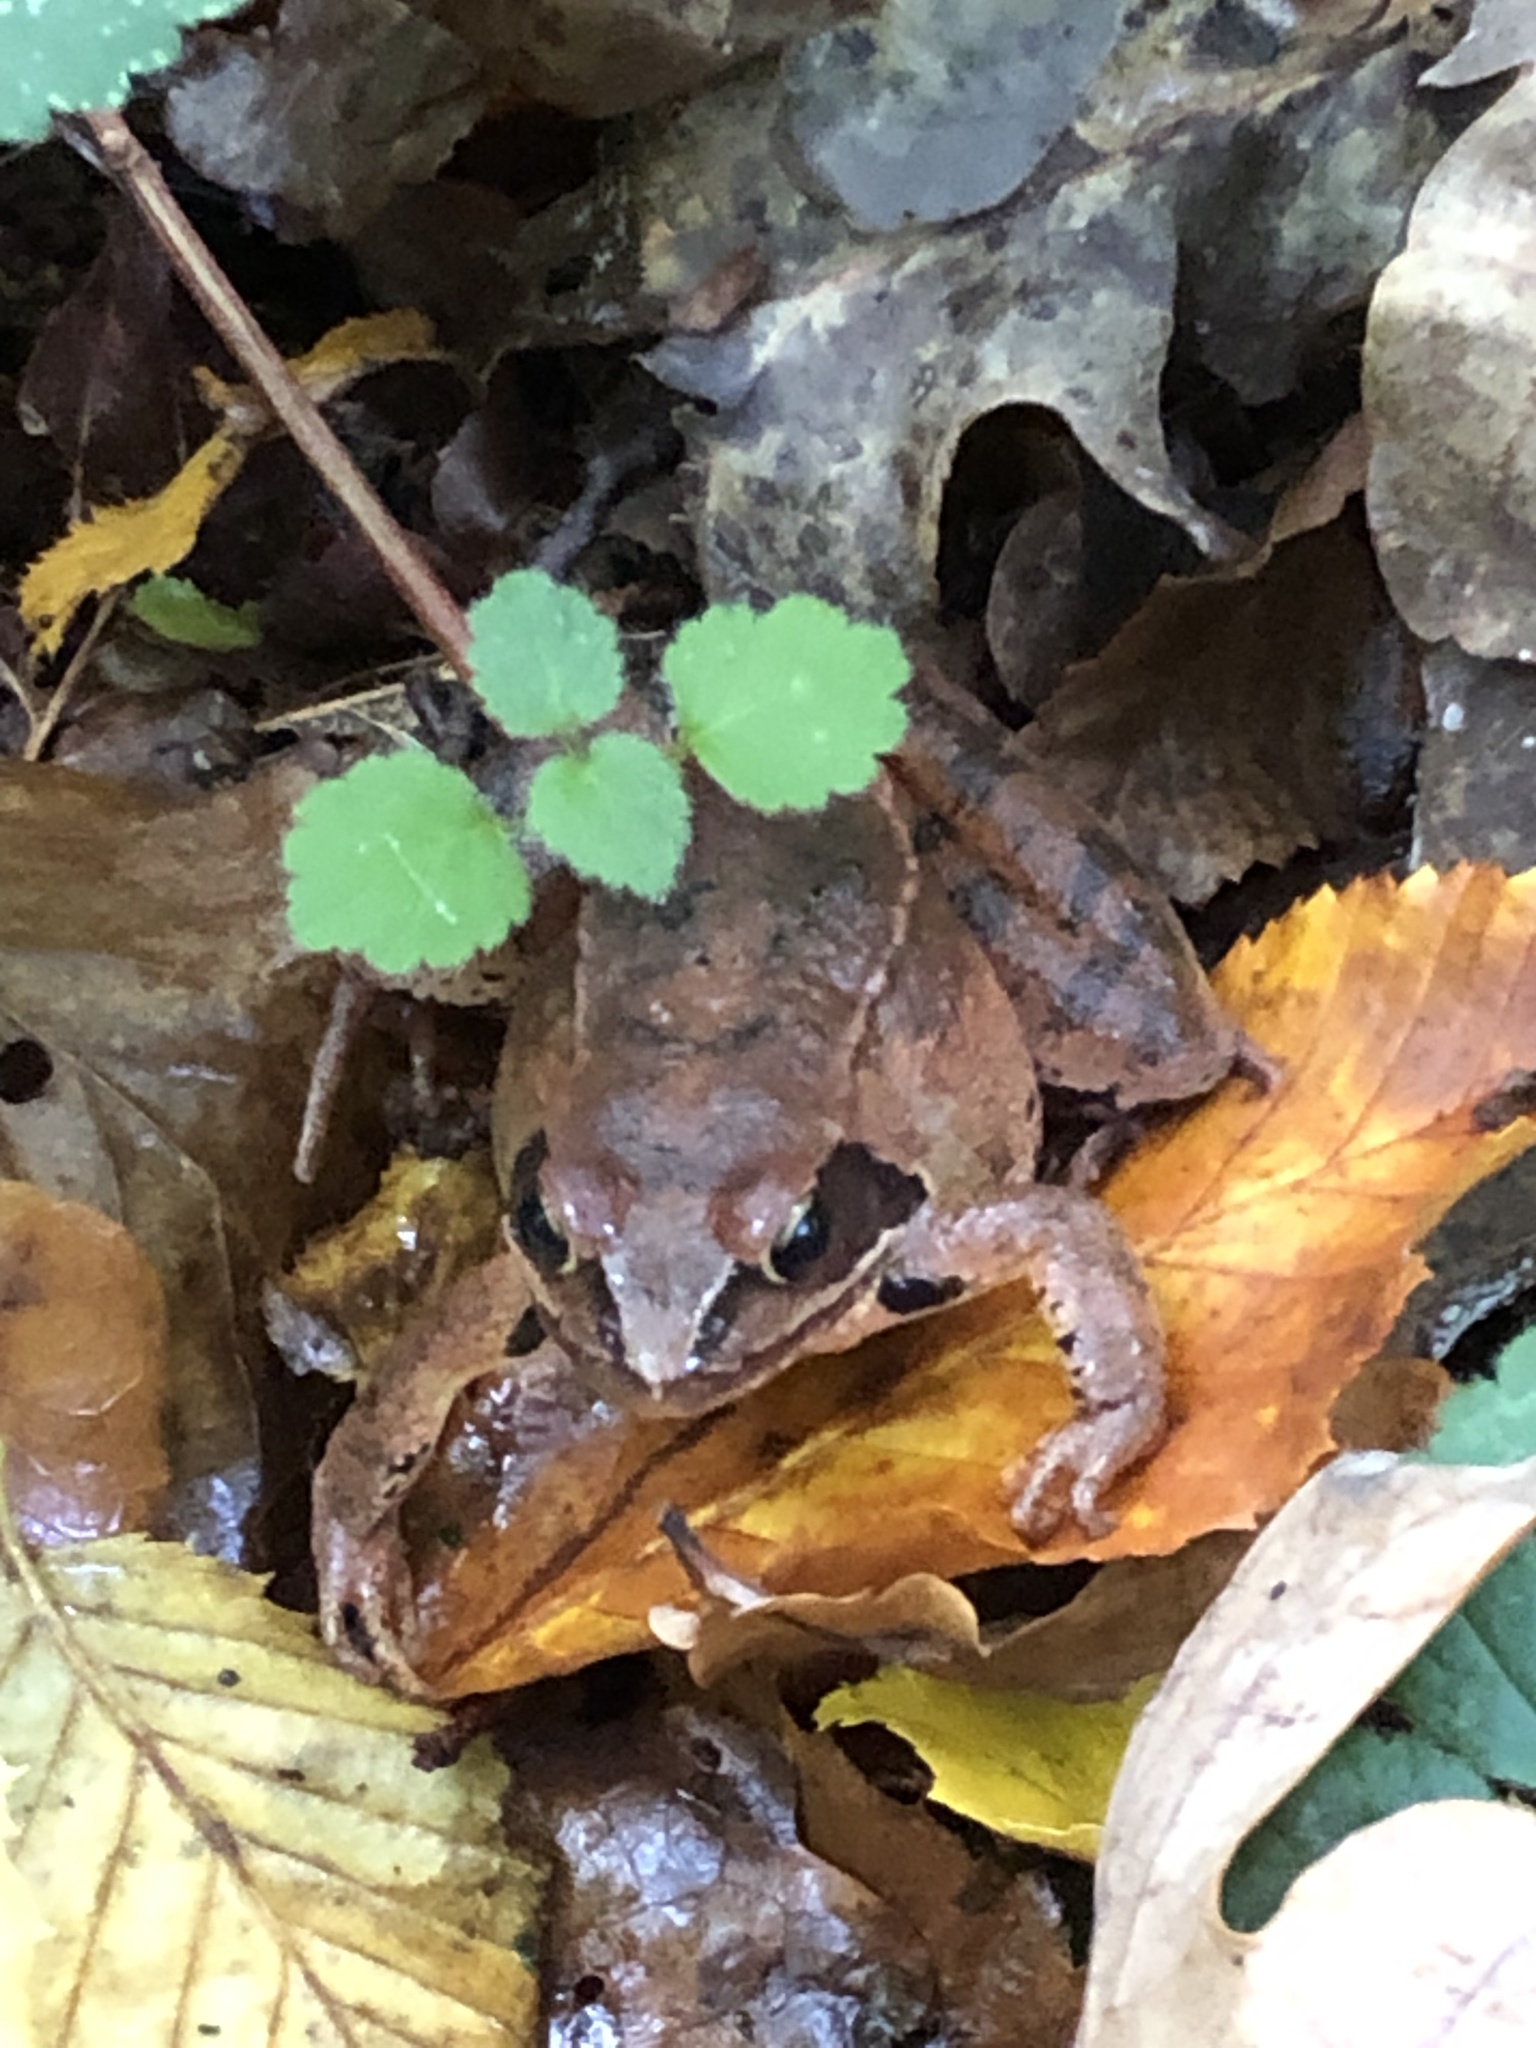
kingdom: Animalia
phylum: Chordata
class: Amphibia
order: Anura
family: Ranidae
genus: Rana
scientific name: Rana dalmatina
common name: Agile frog
